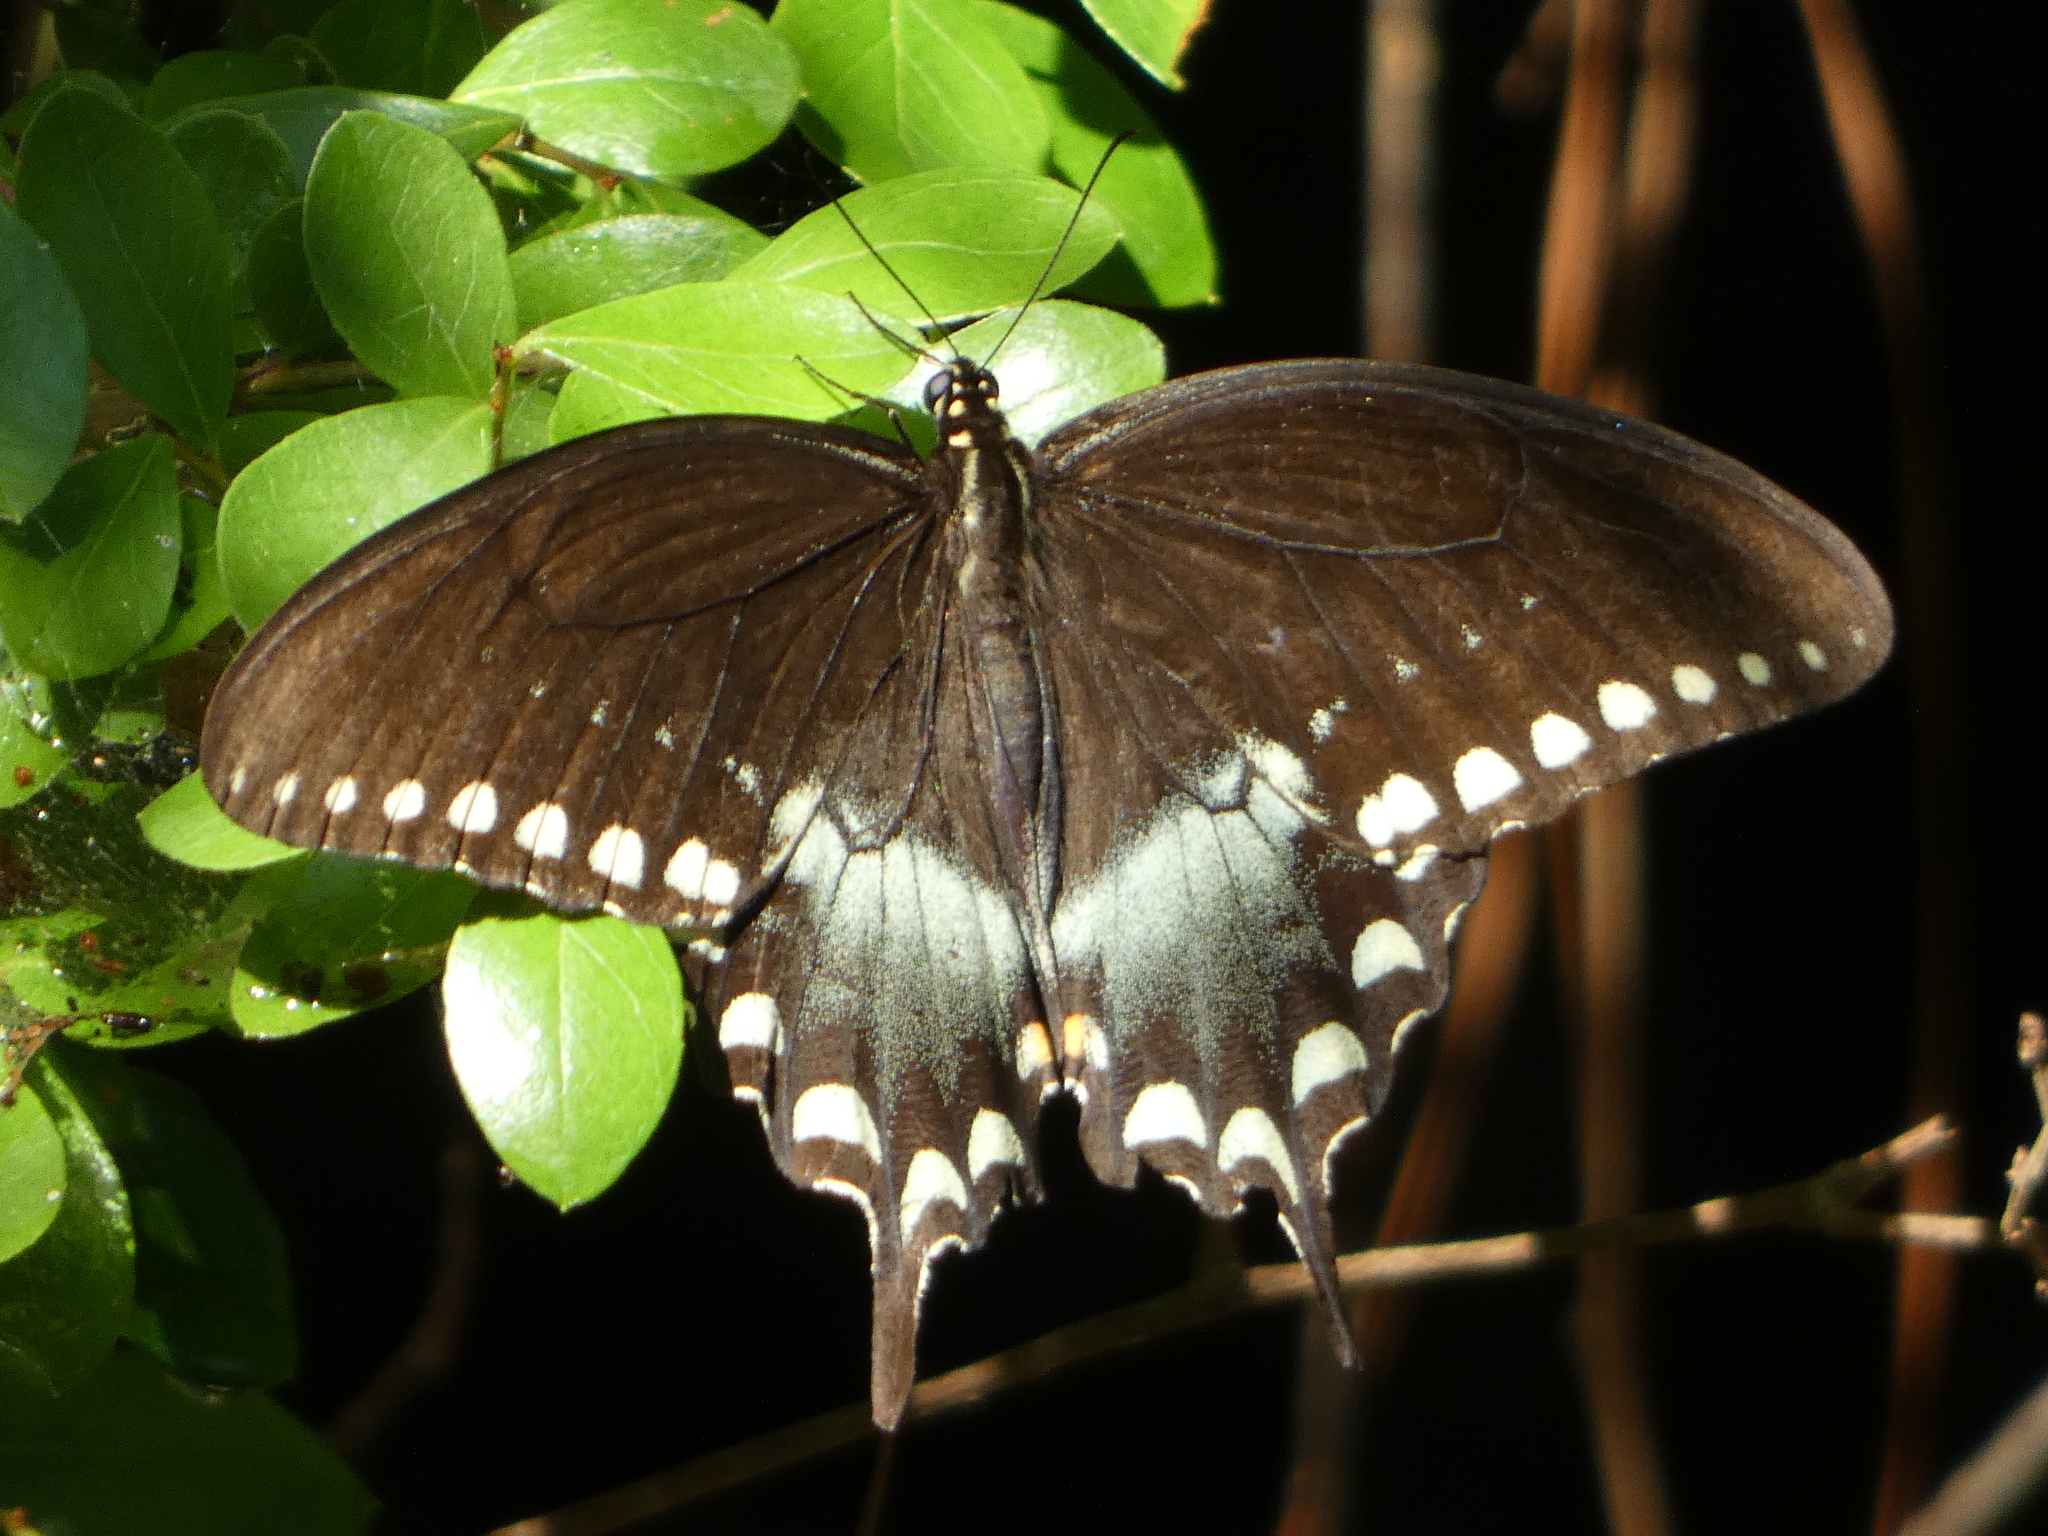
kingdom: Animalia
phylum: Arthropoda
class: Insecta
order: Lepidoptera
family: Papilionidae
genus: Papilio
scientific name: Papilio troilus
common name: Spicebush swallowtail
